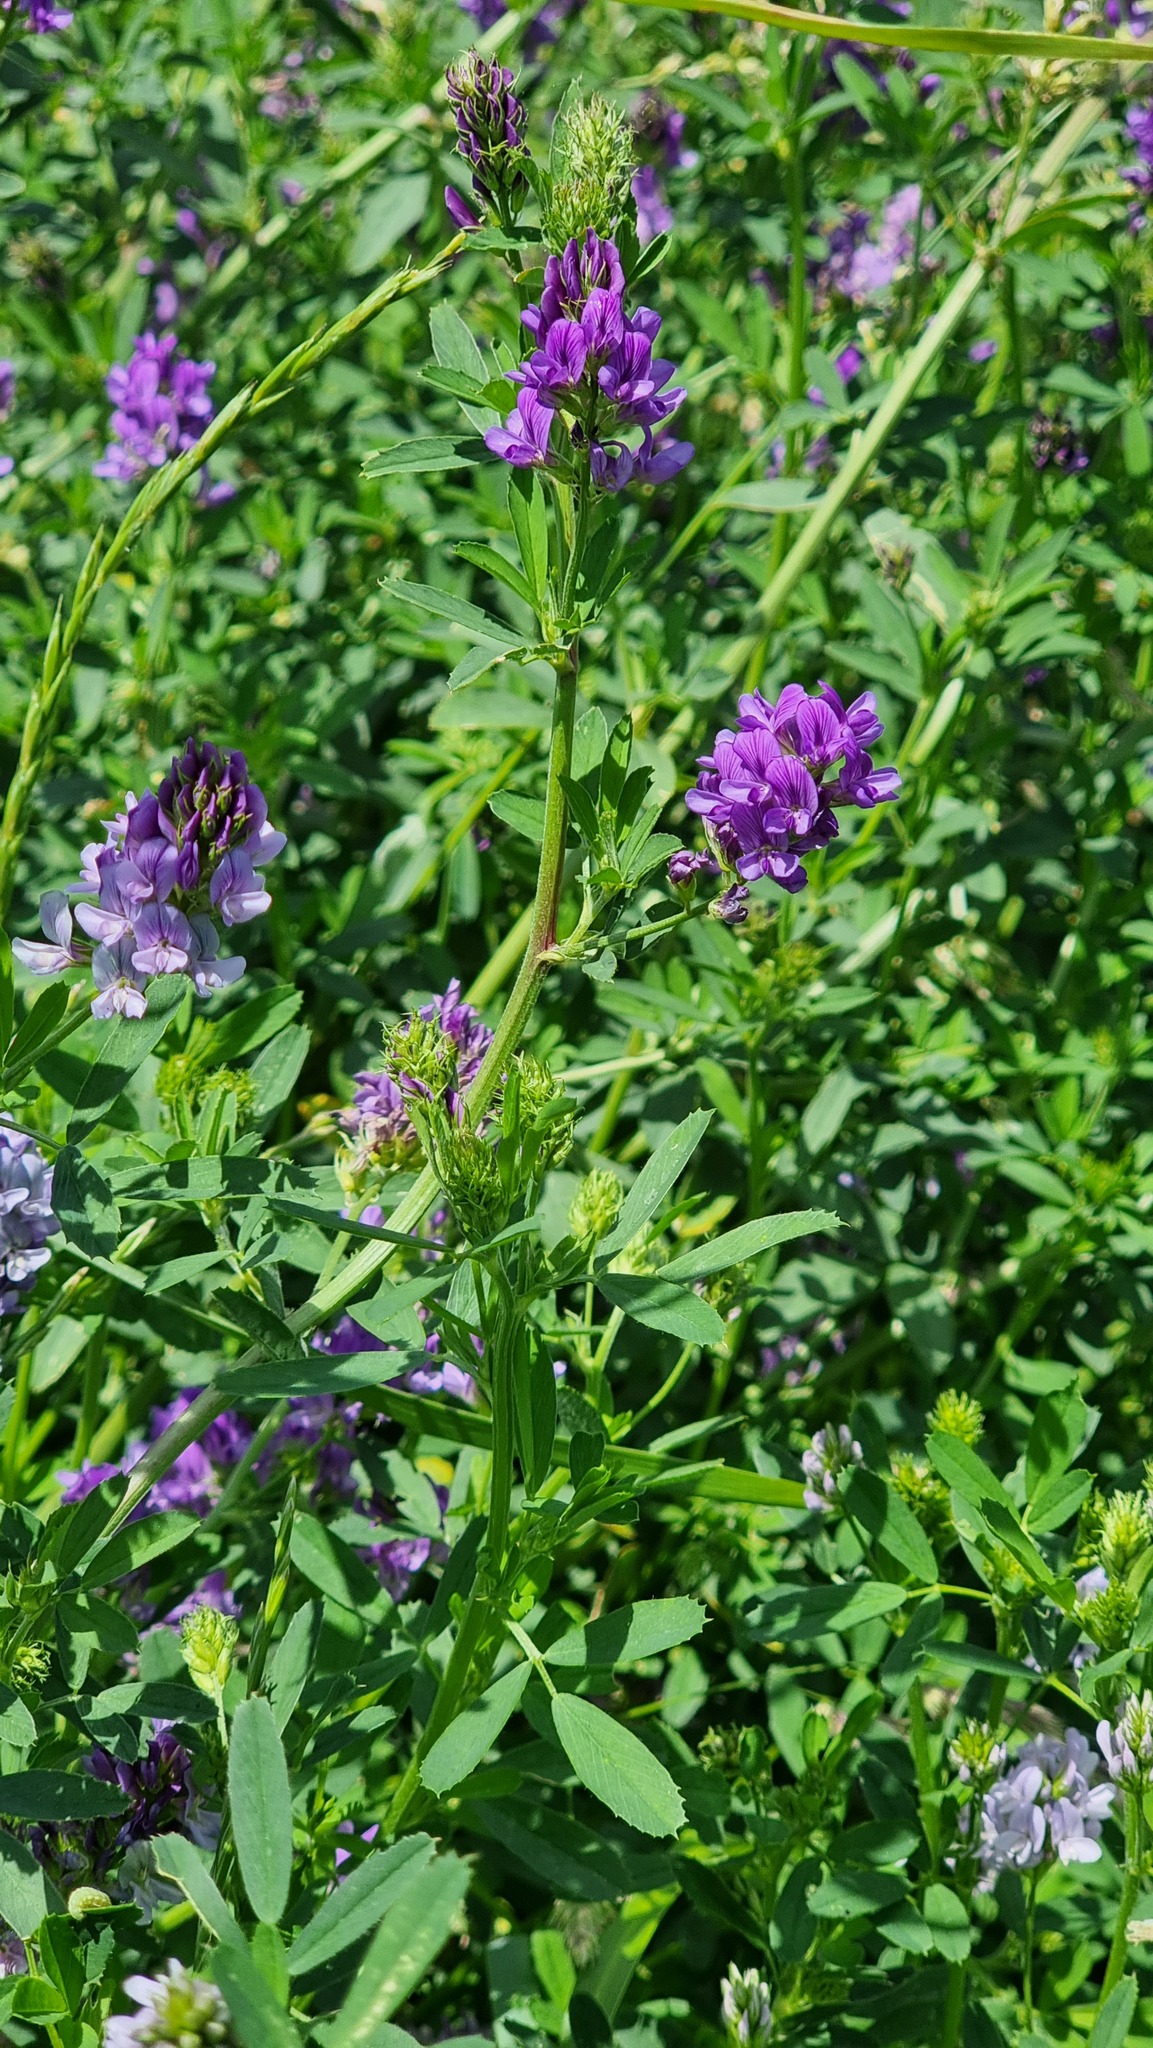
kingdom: Plantae
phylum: Tracheophyta
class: Magnoliopsida
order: Fabales
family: Fabaceae
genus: Medicago
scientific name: Medicago sativa
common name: Alfalfa
